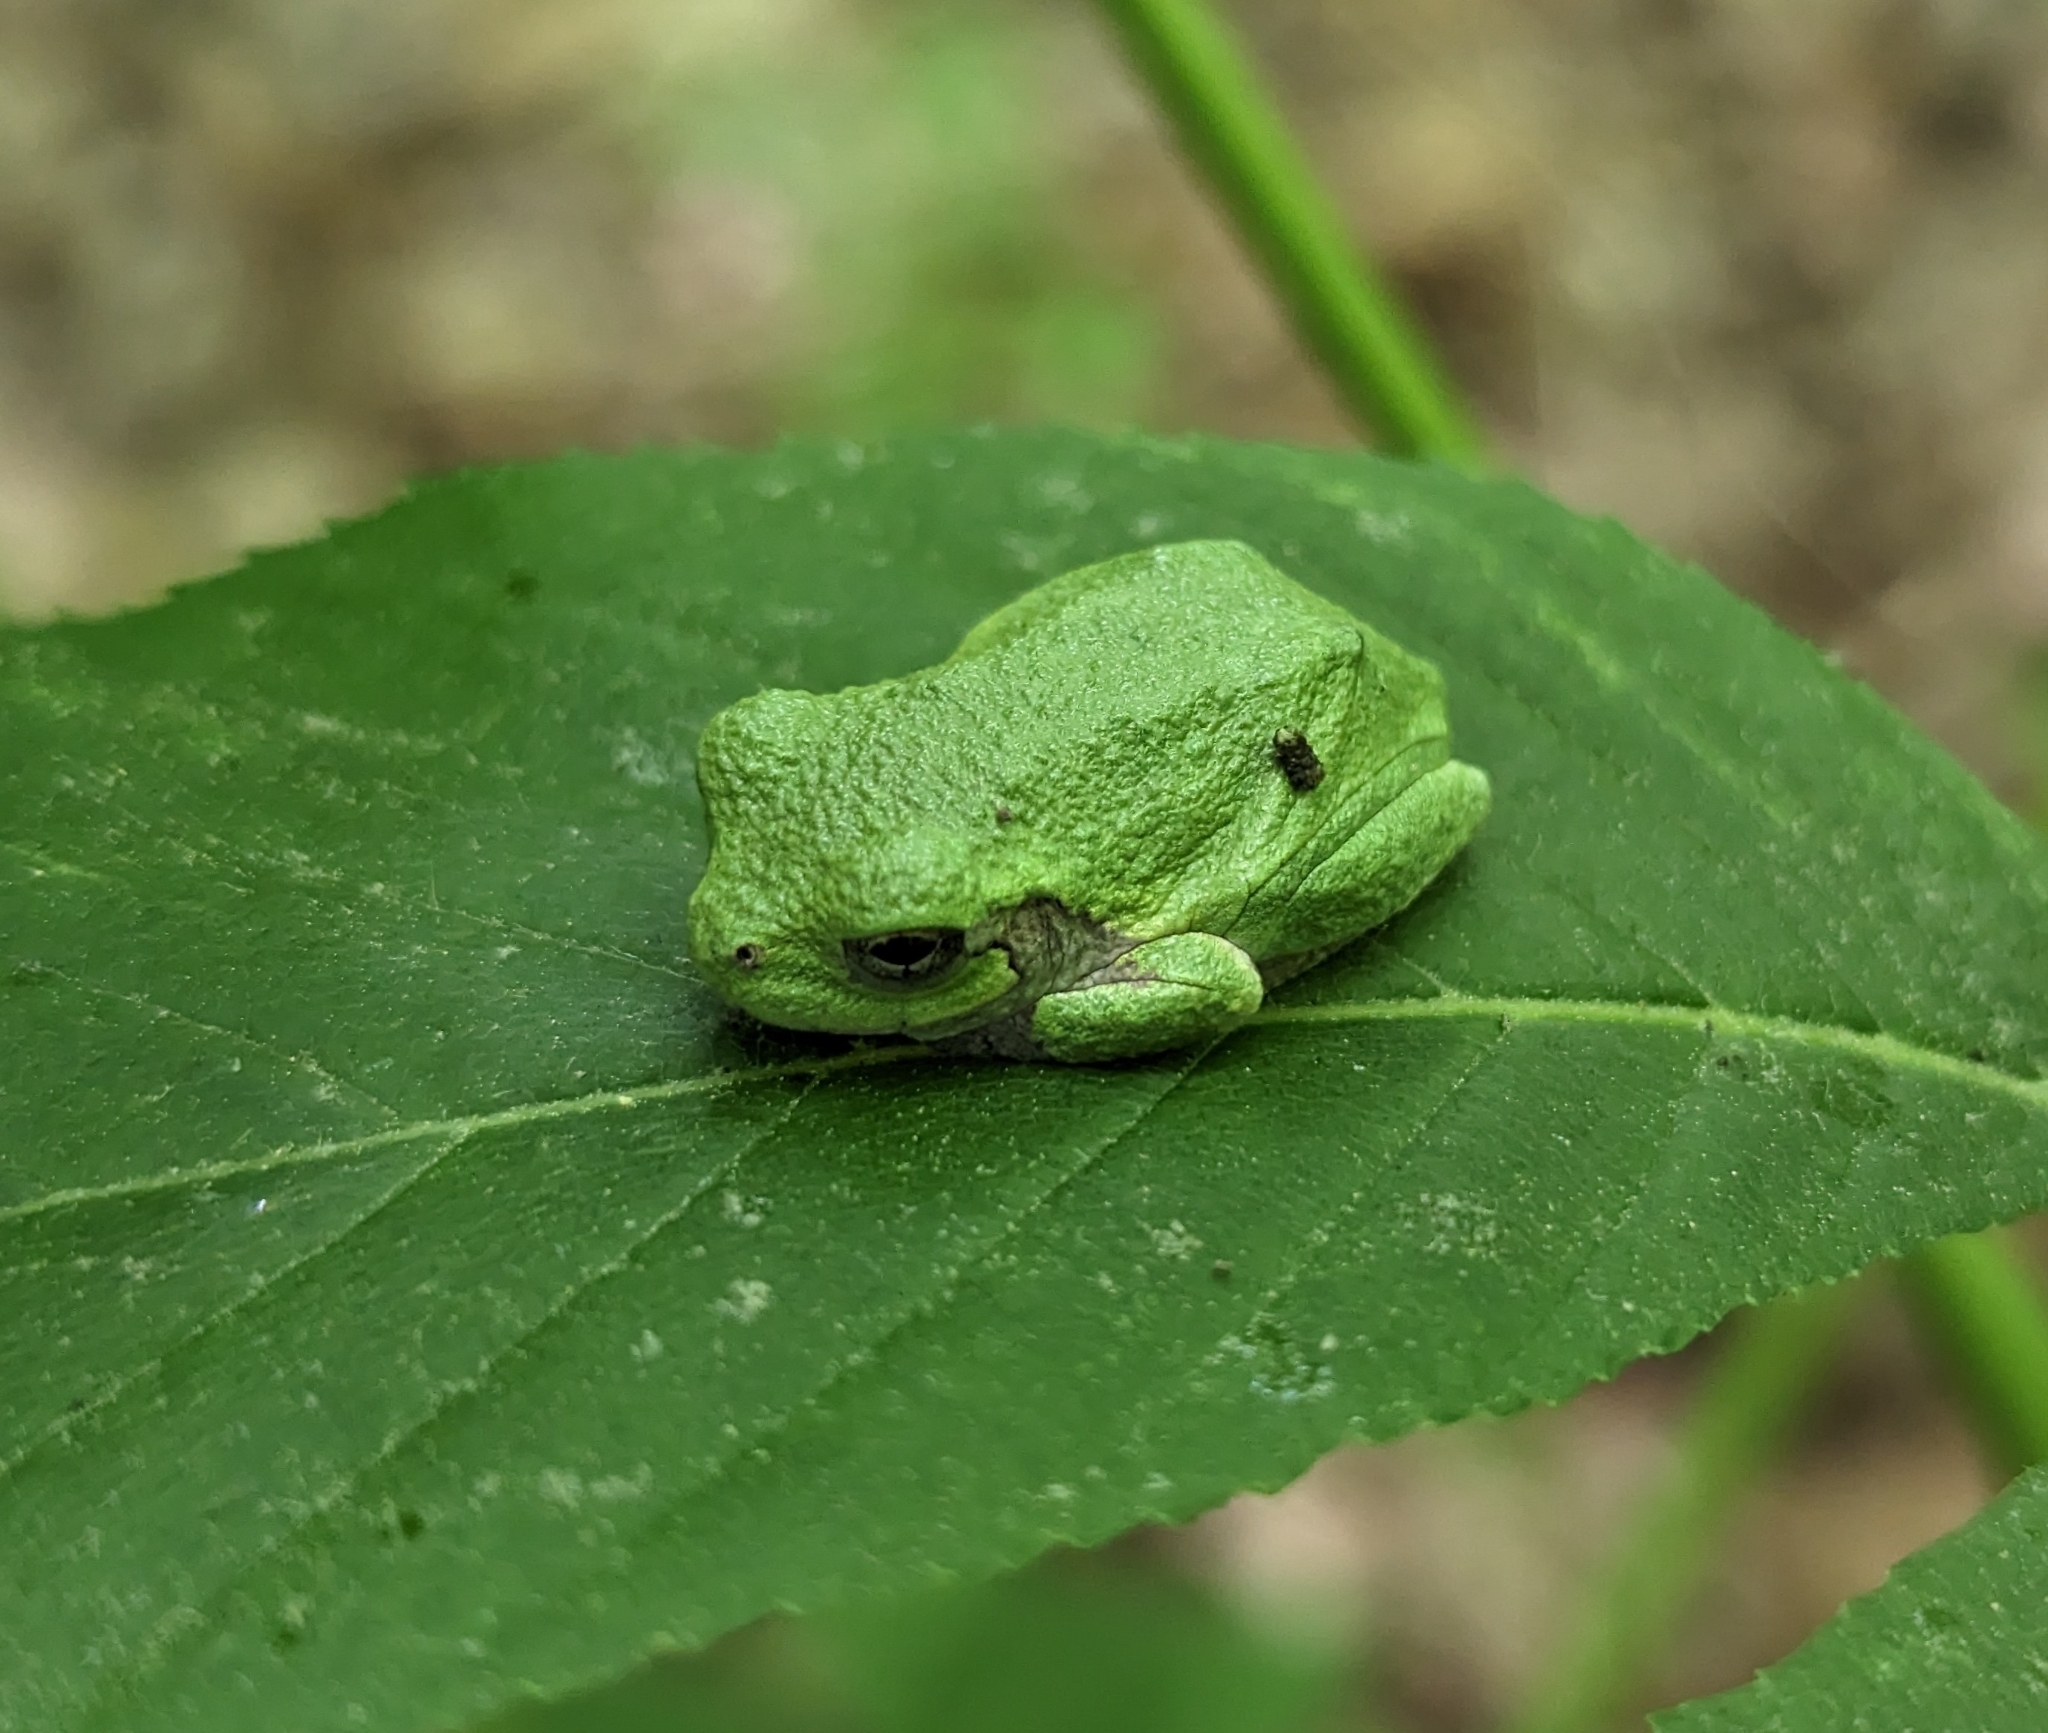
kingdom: Animalia
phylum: Chordata
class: Amphibia
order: Anura
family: Hylidae
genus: Hyla
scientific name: Hyla
